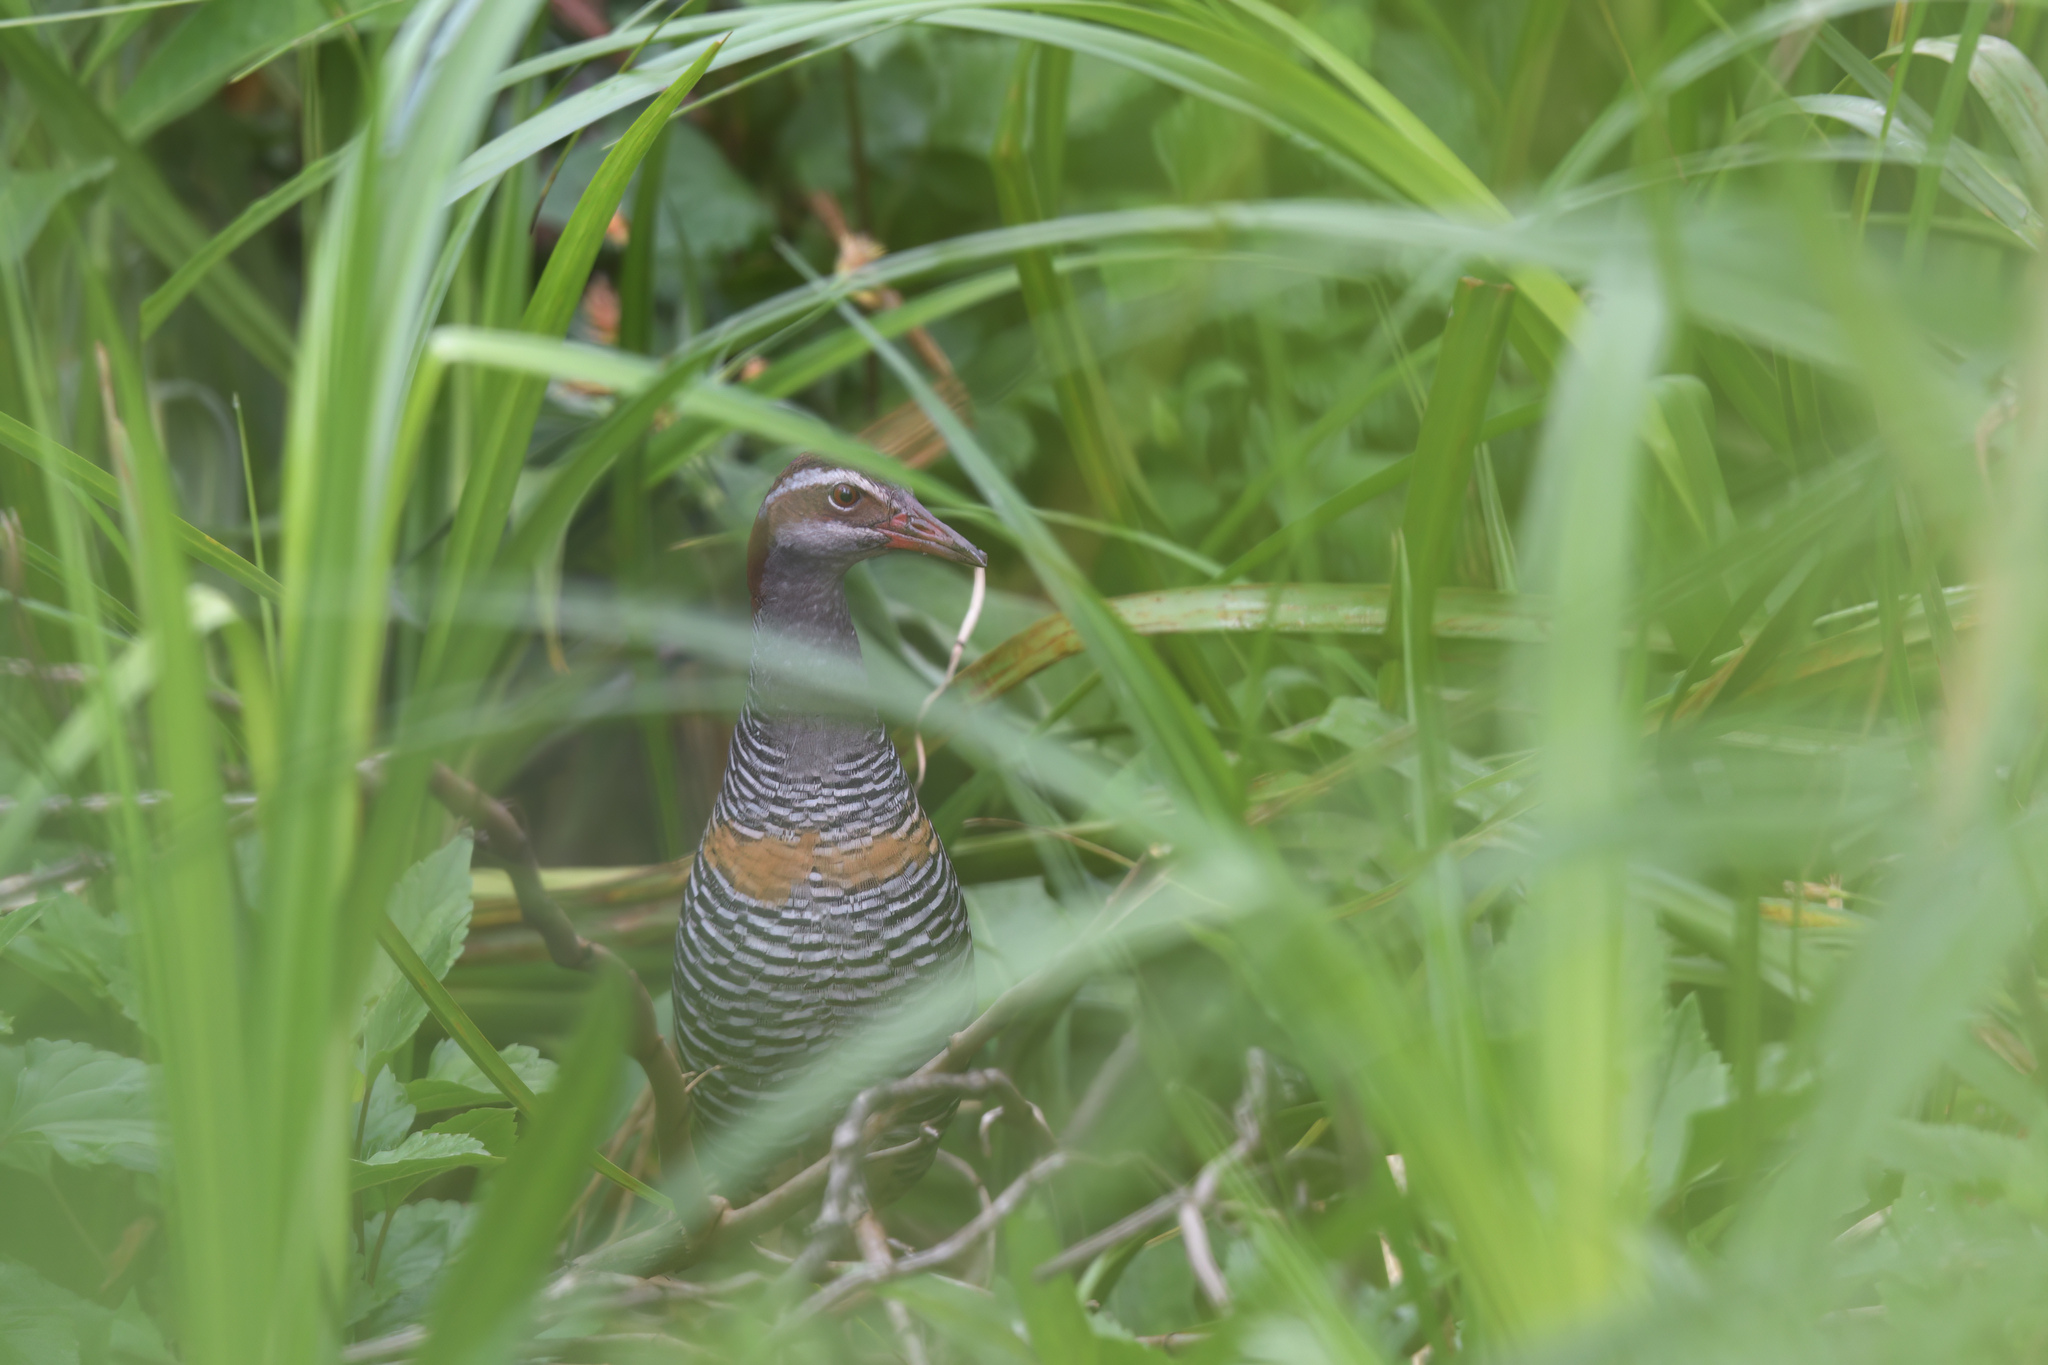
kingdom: Animalia
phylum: Chordata
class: Aves
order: Gruiformes
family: Rallidae
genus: Gallirallus
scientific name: Gallirallus philippensis
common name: Buff-banded rail
